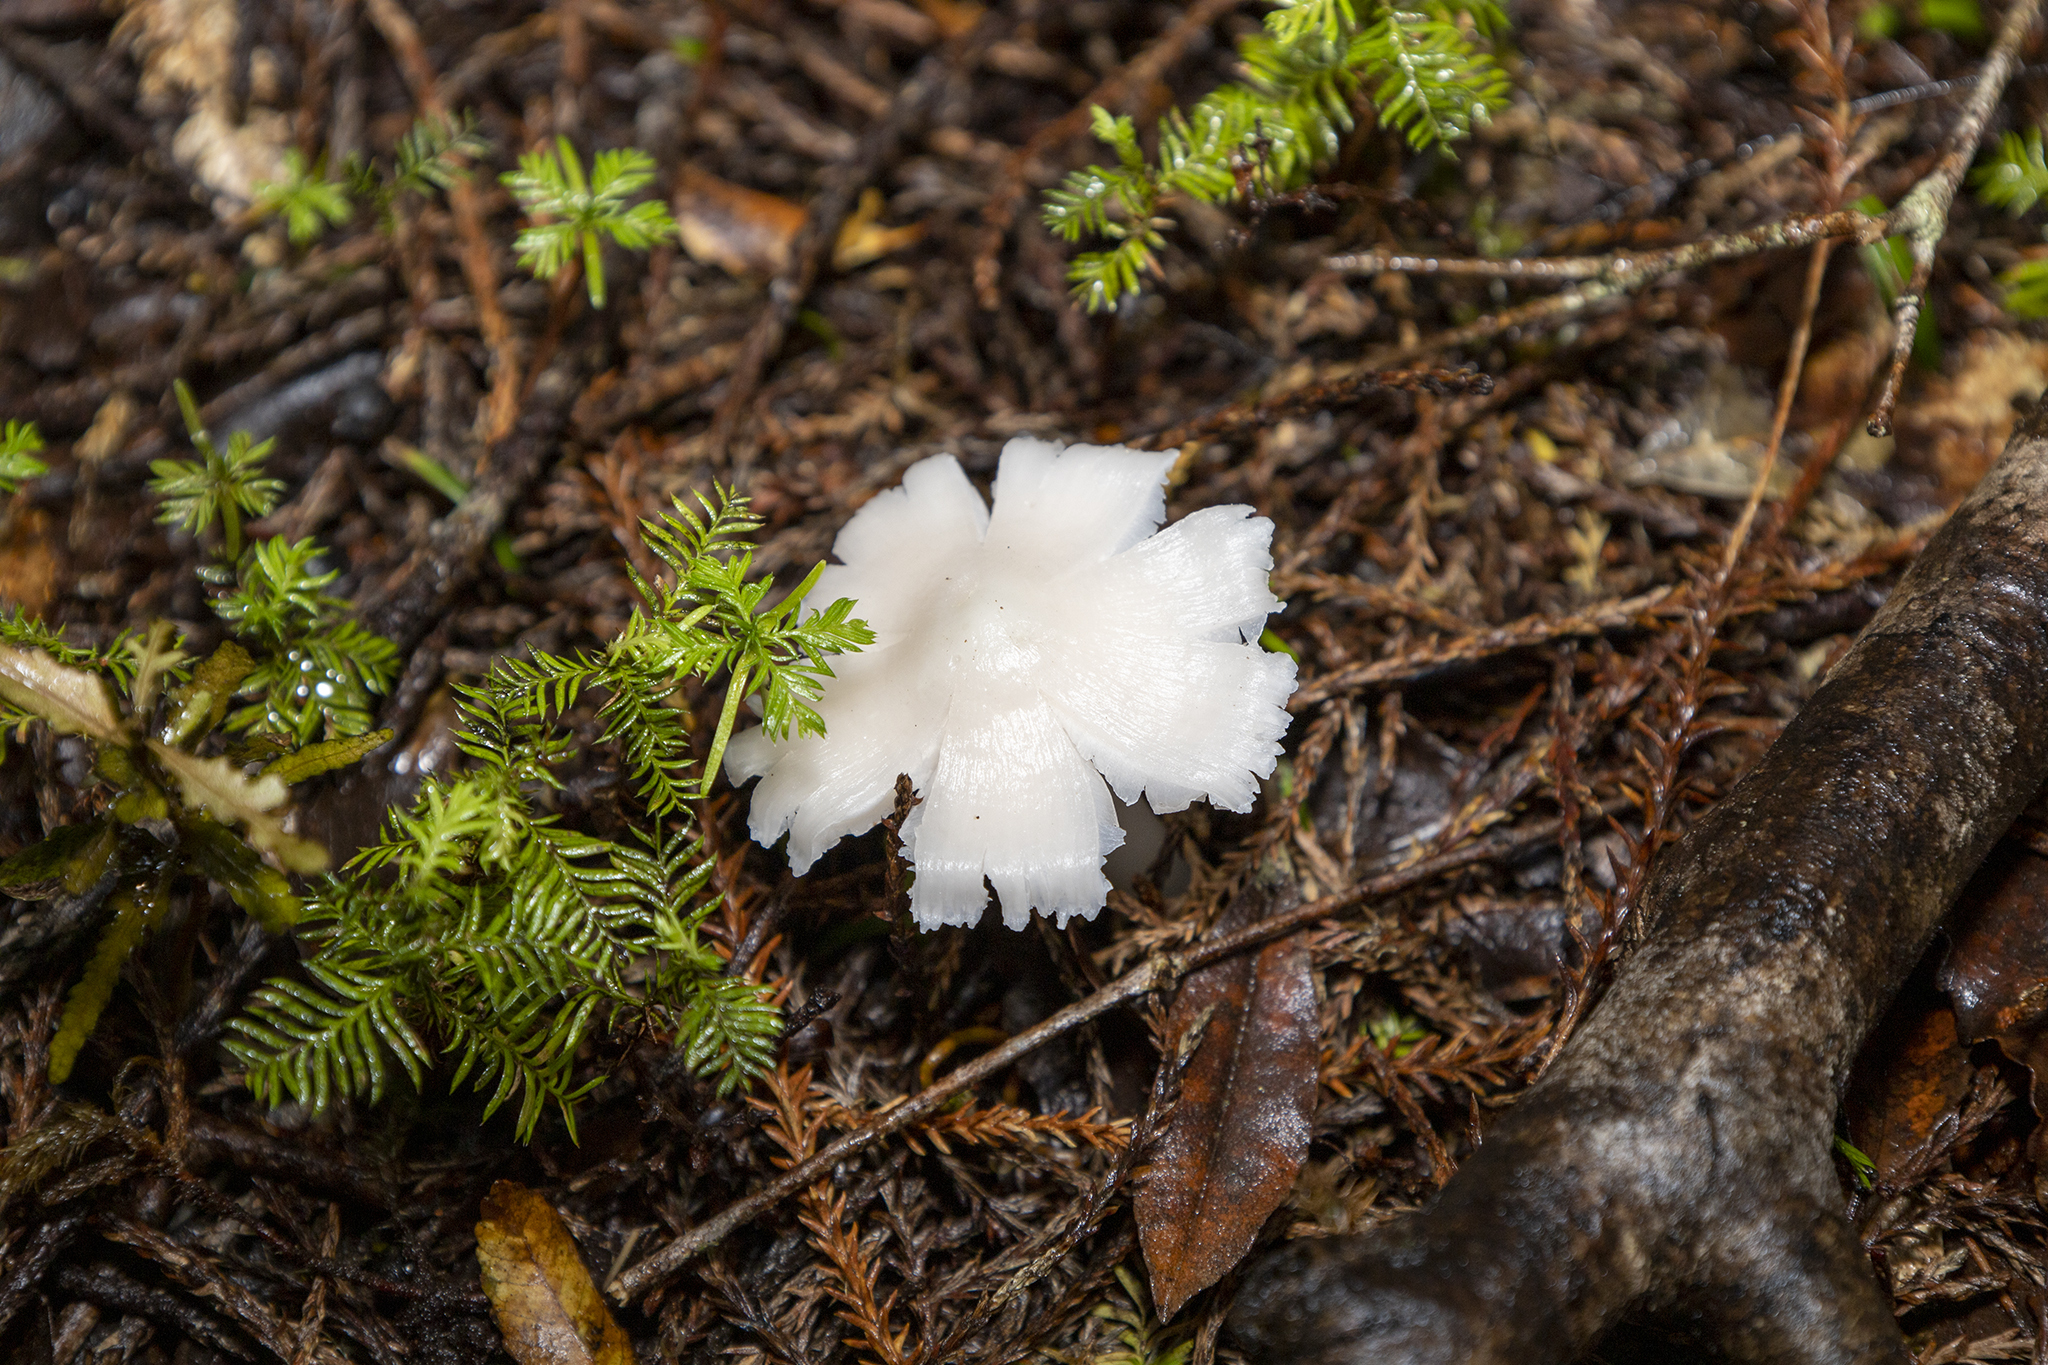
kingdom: Fungi
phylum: Basidiomycota
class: Agaricomycetes
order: Agaricales
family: Hygrophoraceae
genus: Humidicutis
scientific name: Humidicutis mavis
